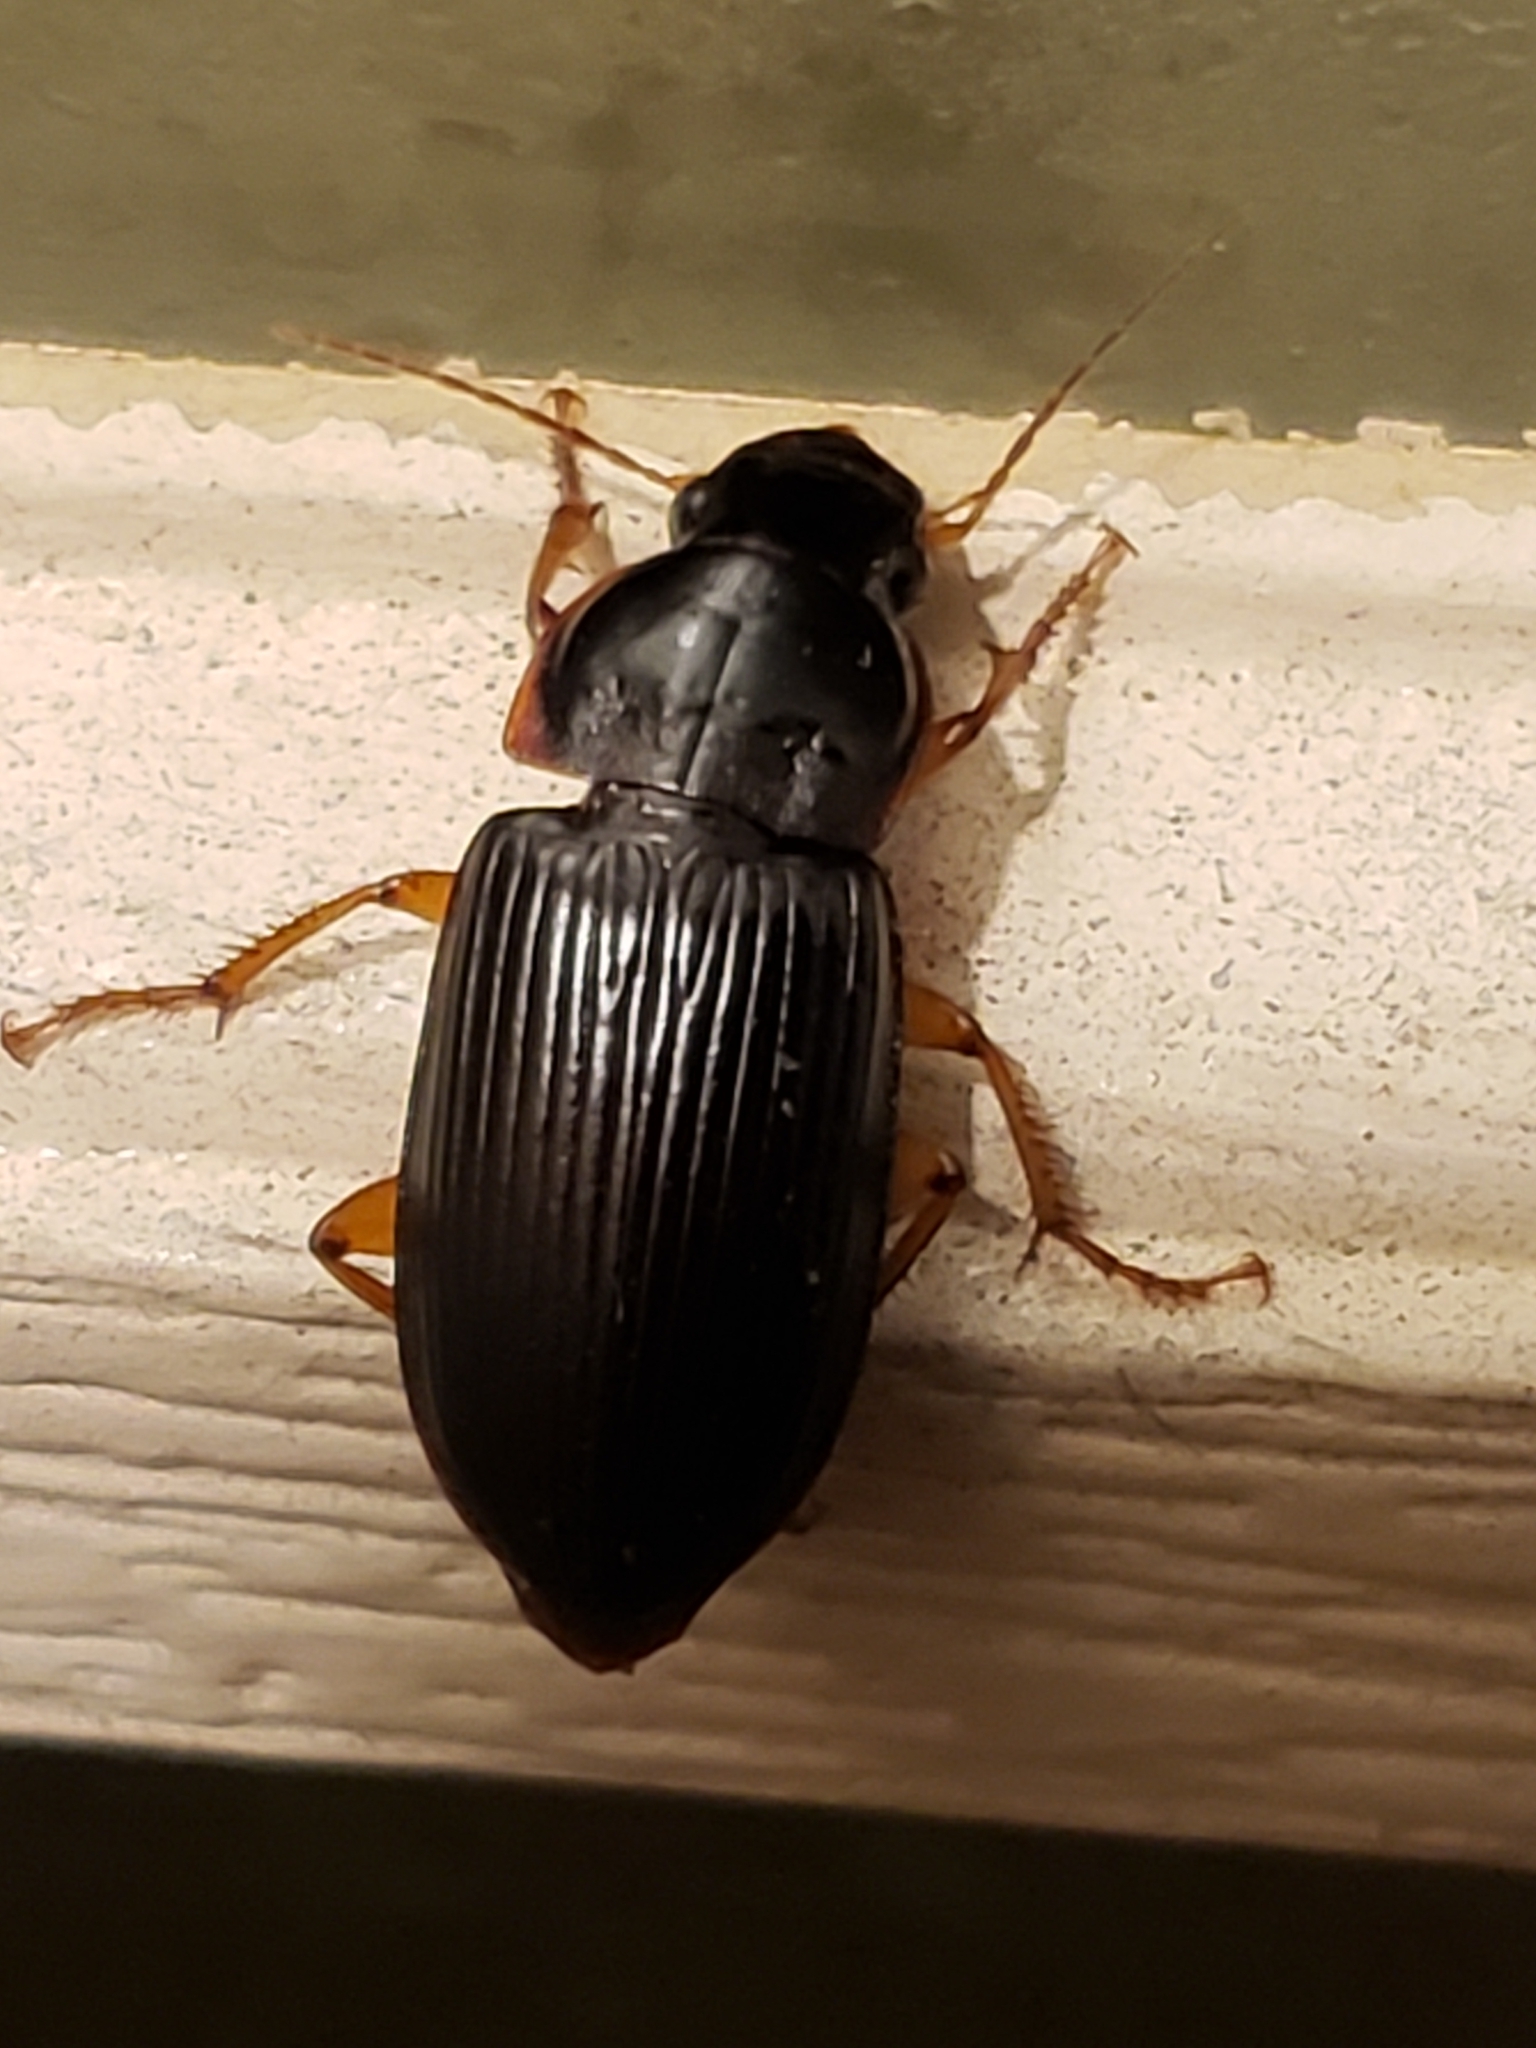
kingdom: Animalia
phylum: Arthropoda
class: Insecta
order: Coleoptera
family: Carabidae
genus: Harpalus
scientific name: Harpalus pensylvanicus
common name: Pennsylvania dingy ground beetle
